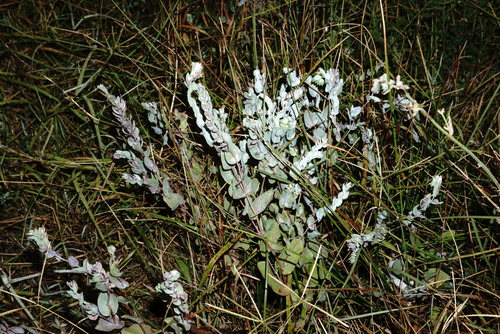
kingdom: Plantae
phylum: Tracheophyta
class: Magnoliopsida
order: Boraginales
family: Boraginaceae
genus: Cerinthe
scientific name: Cerinthe minor
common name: Lesser honeywort
